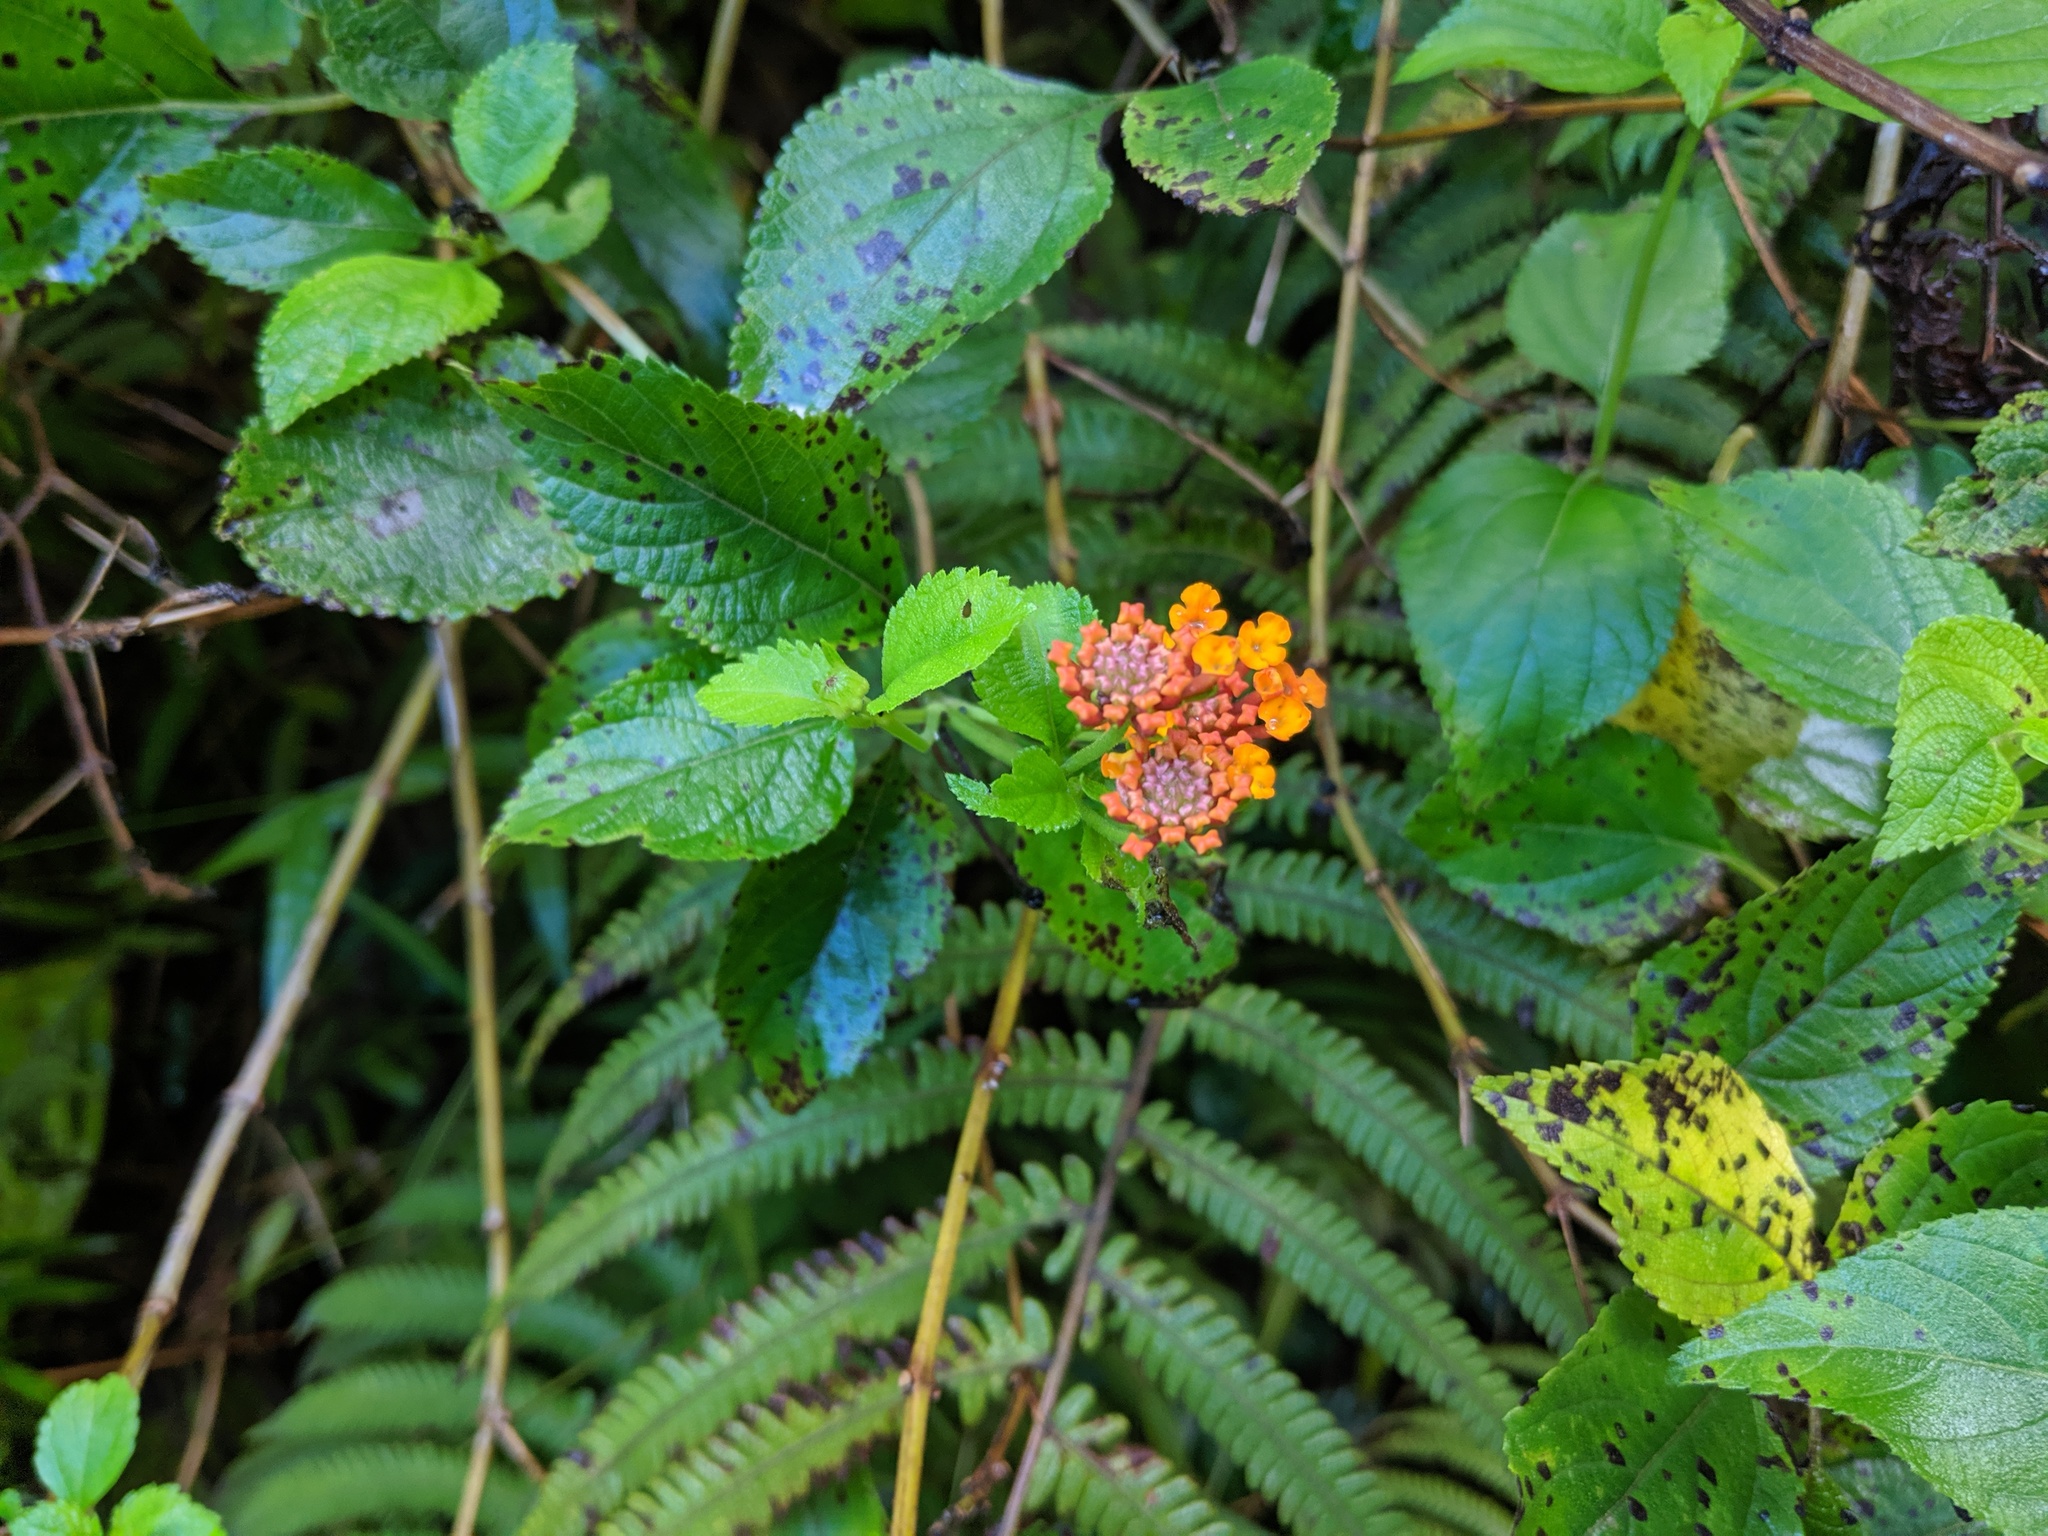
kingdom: Plantae
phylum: Tracheophyta
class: Magnoliopsida
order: Lamiales
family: Verbenaceae
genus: Lantana
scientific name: Lantana camara
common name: Lantana
